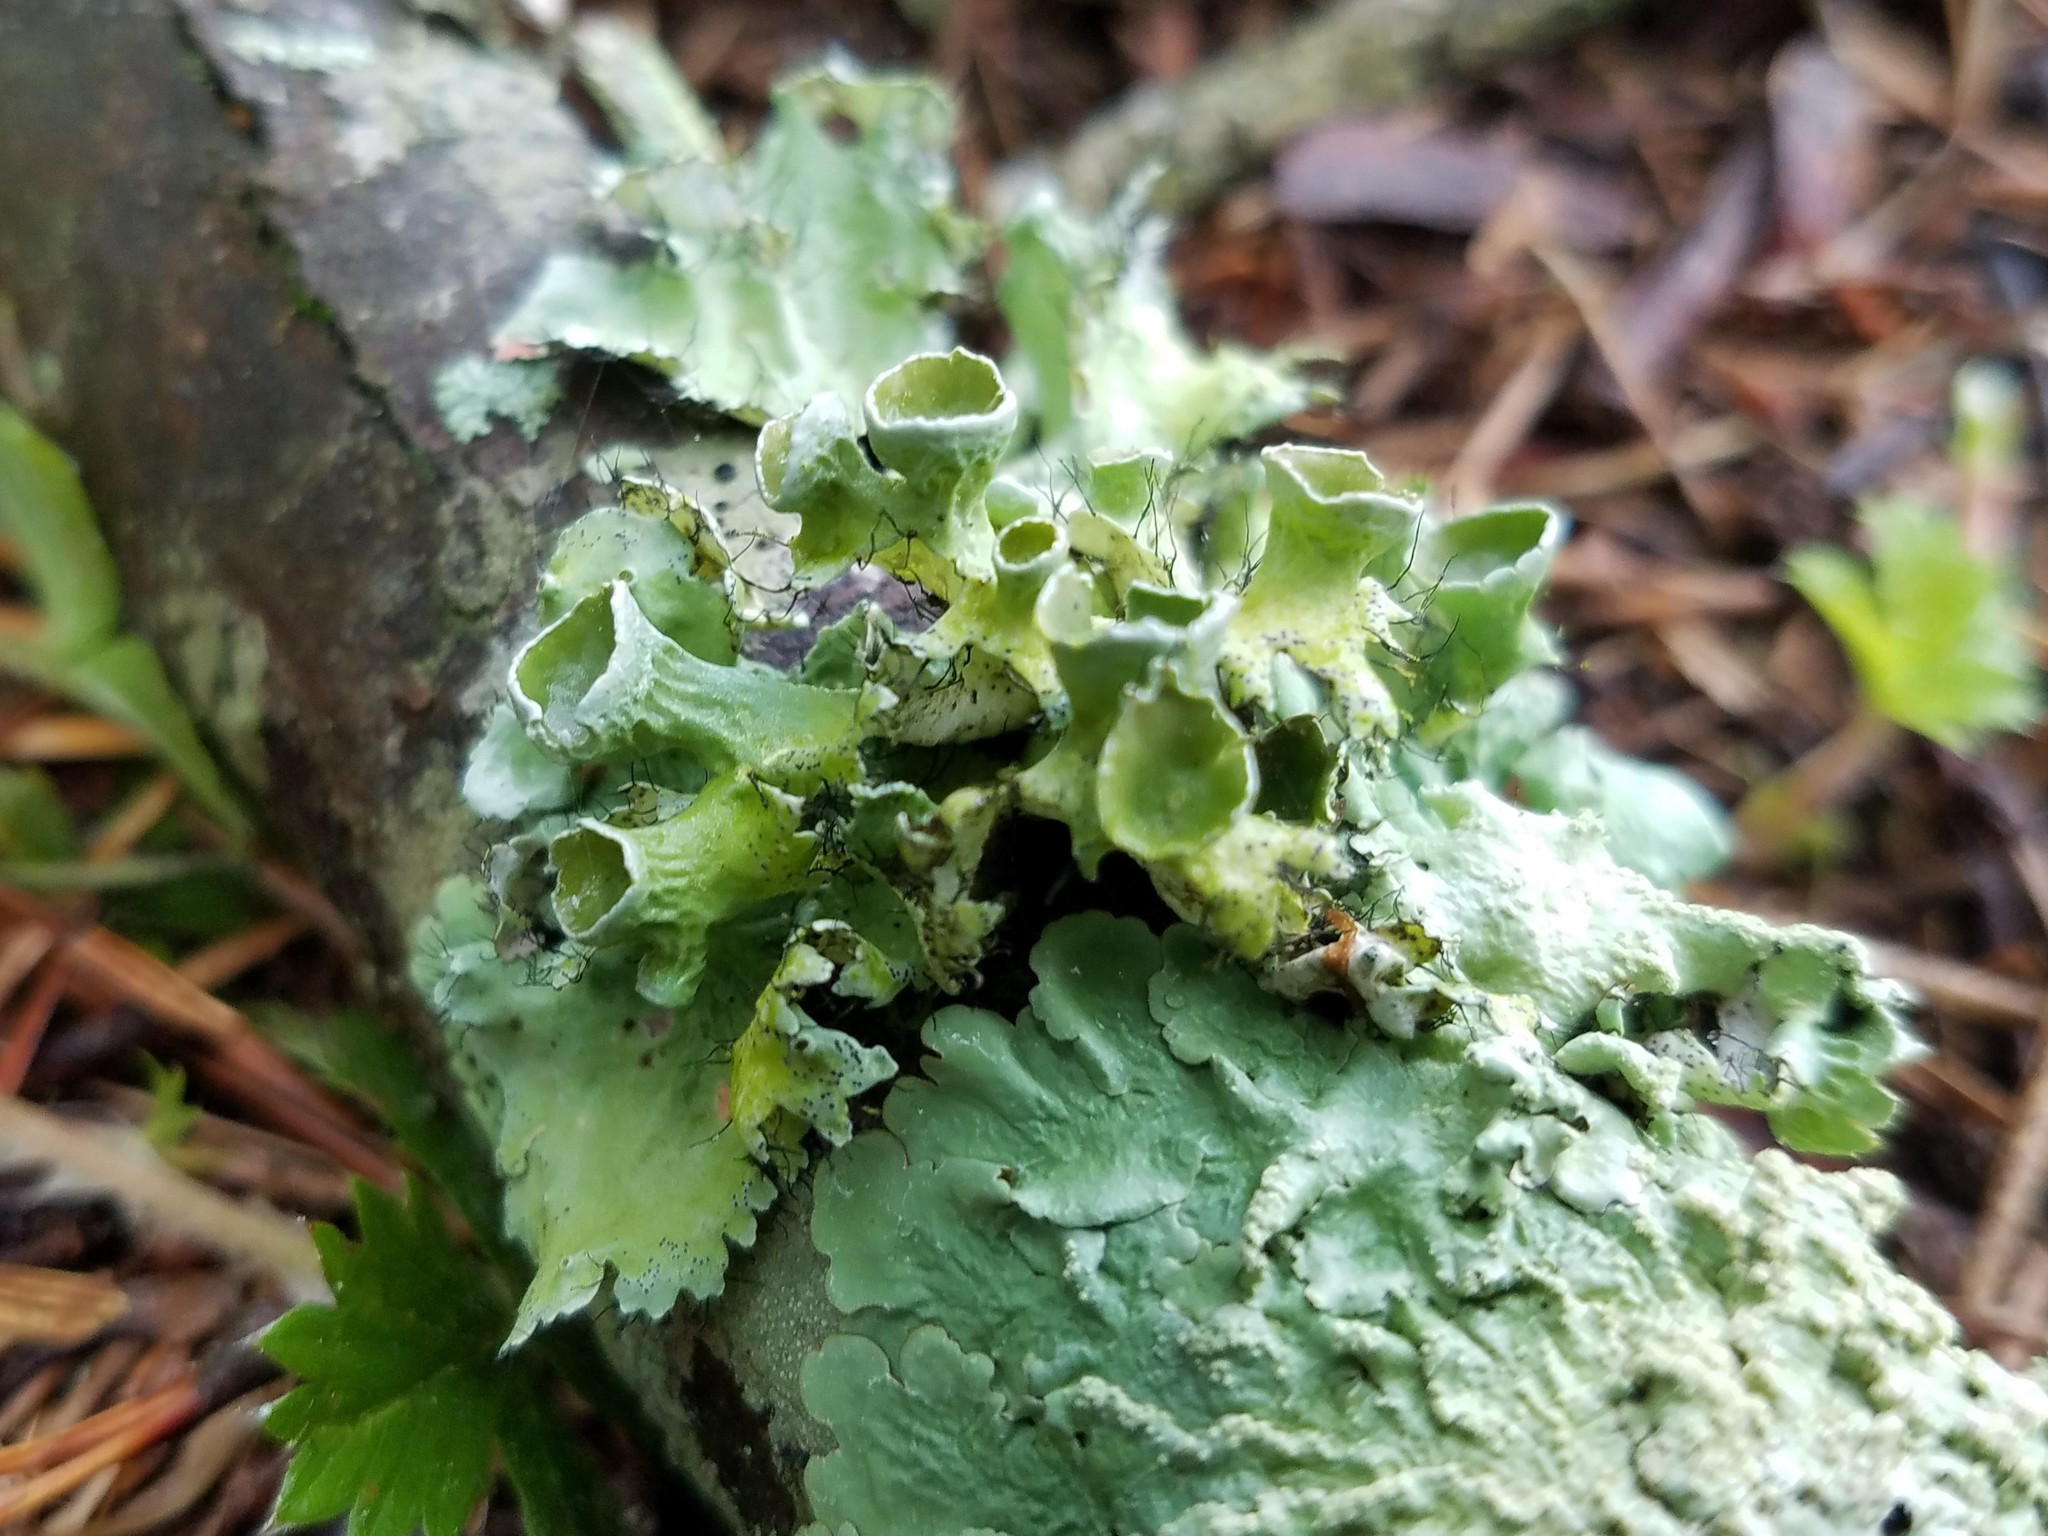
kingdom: Fungi
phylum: Ascomycota
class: Lecanoromycetes
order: Lecanorales
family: Parmeliaceae
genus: Parmotrema
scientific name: Parmotrema perforatum
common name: Perforated ruffle lichen
